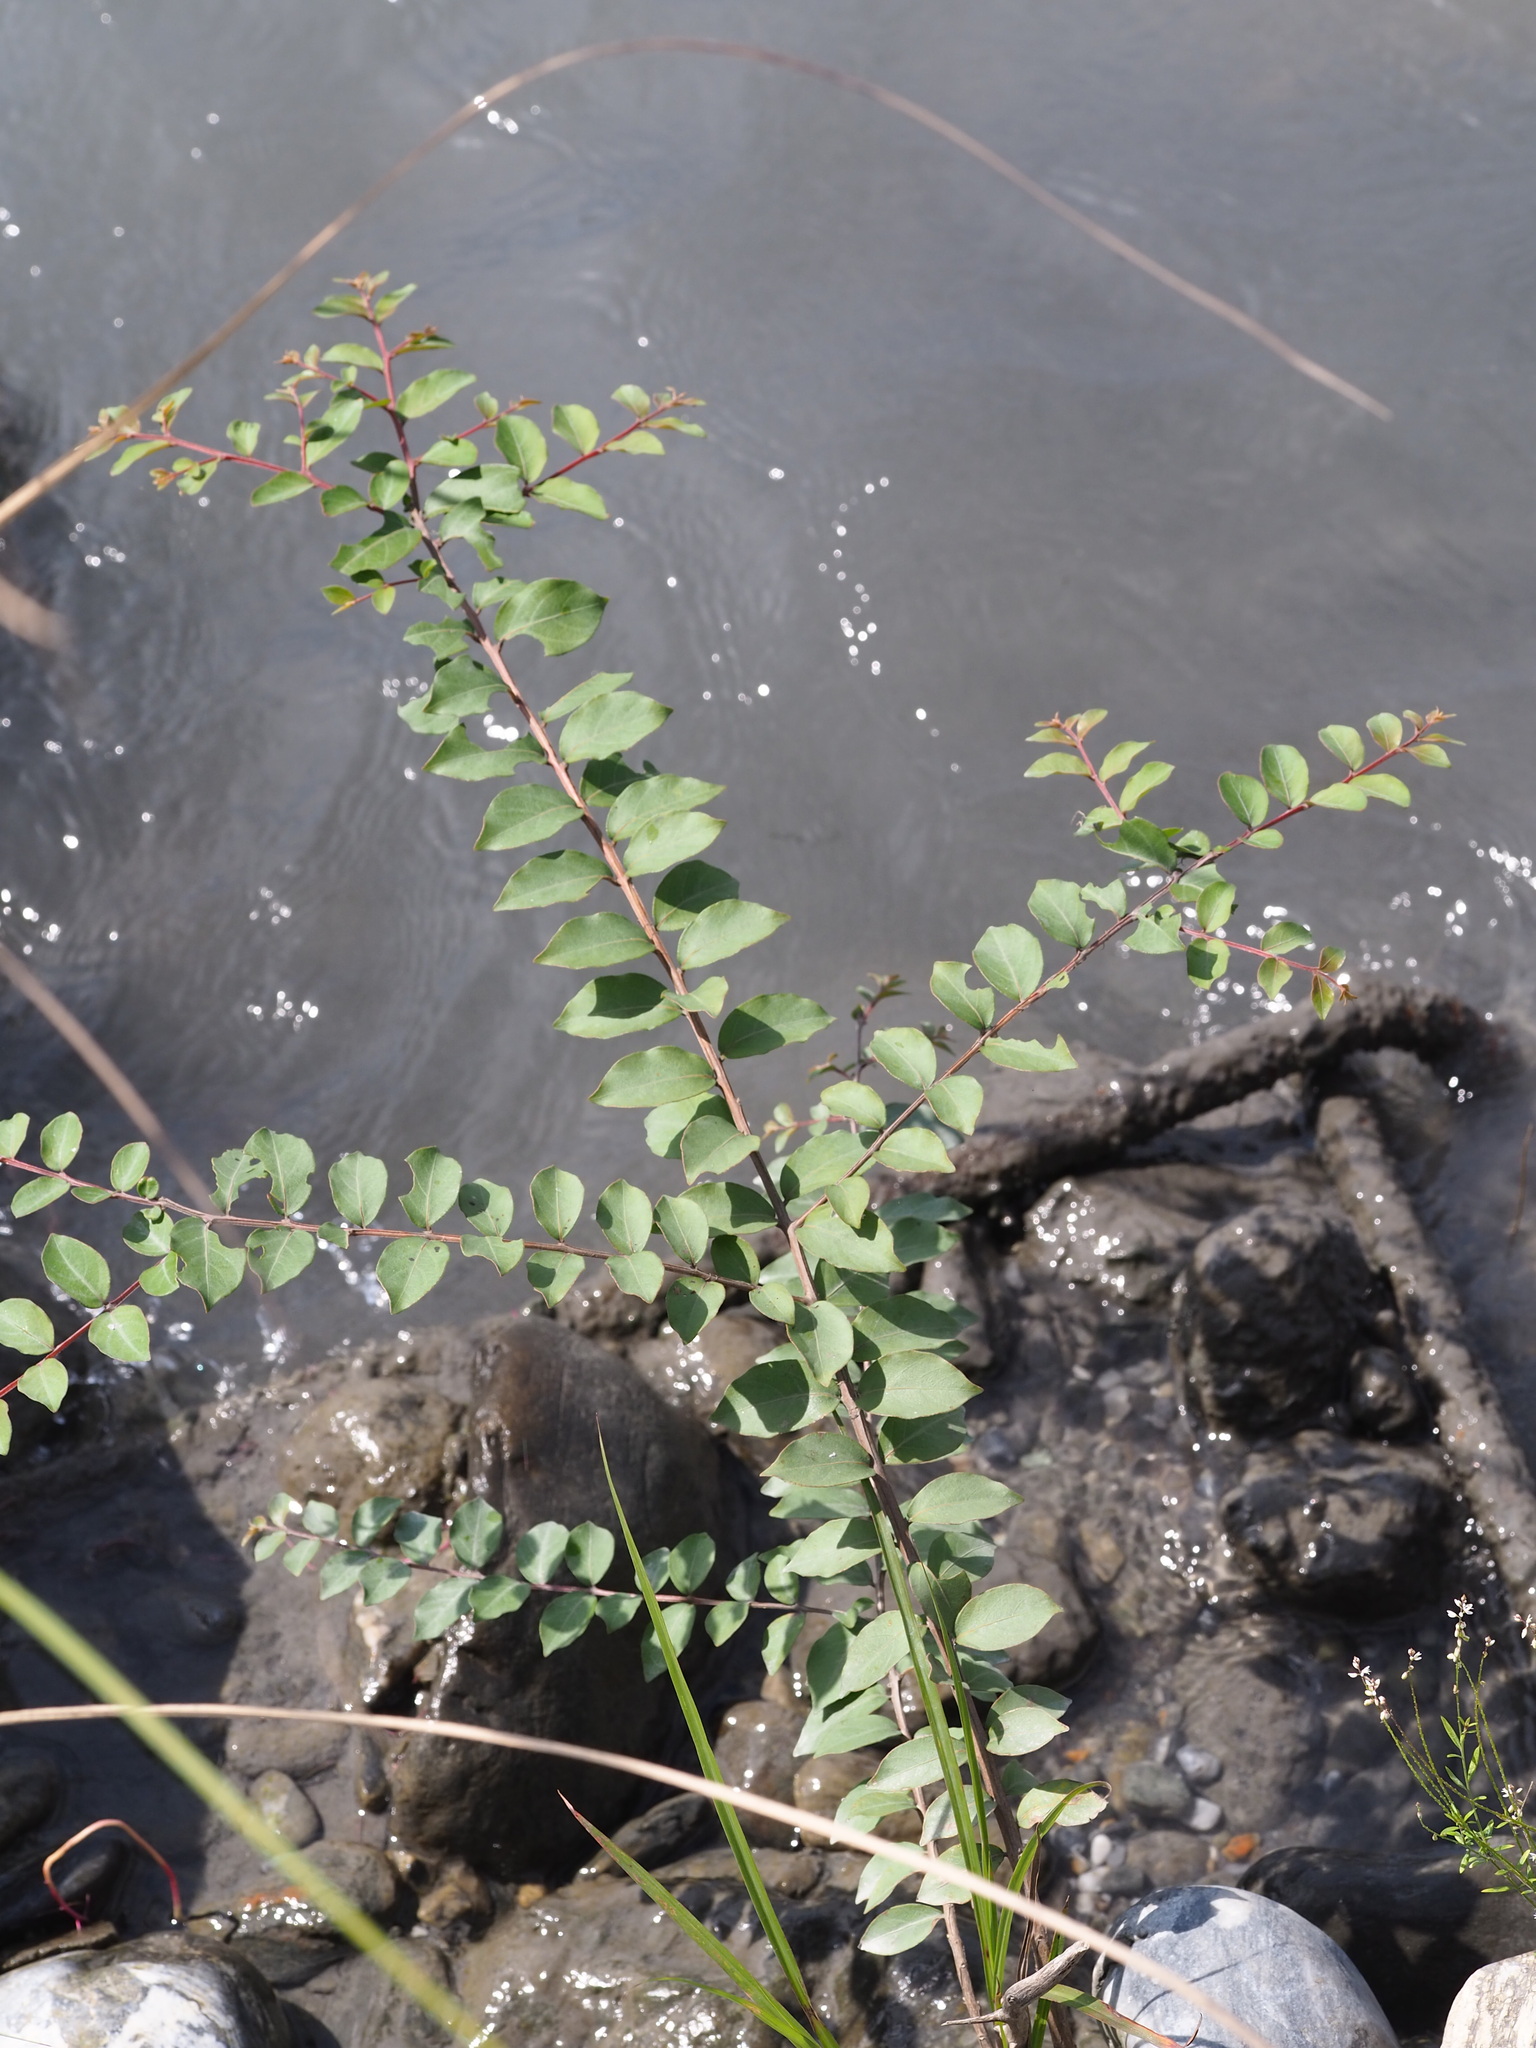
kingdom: Plantae
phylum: Tracheophyta
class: Magnoliopsida
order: Myrtales
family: Lythraceae
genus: Lagerstroemia
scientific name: Lagerstroemia subcostata
